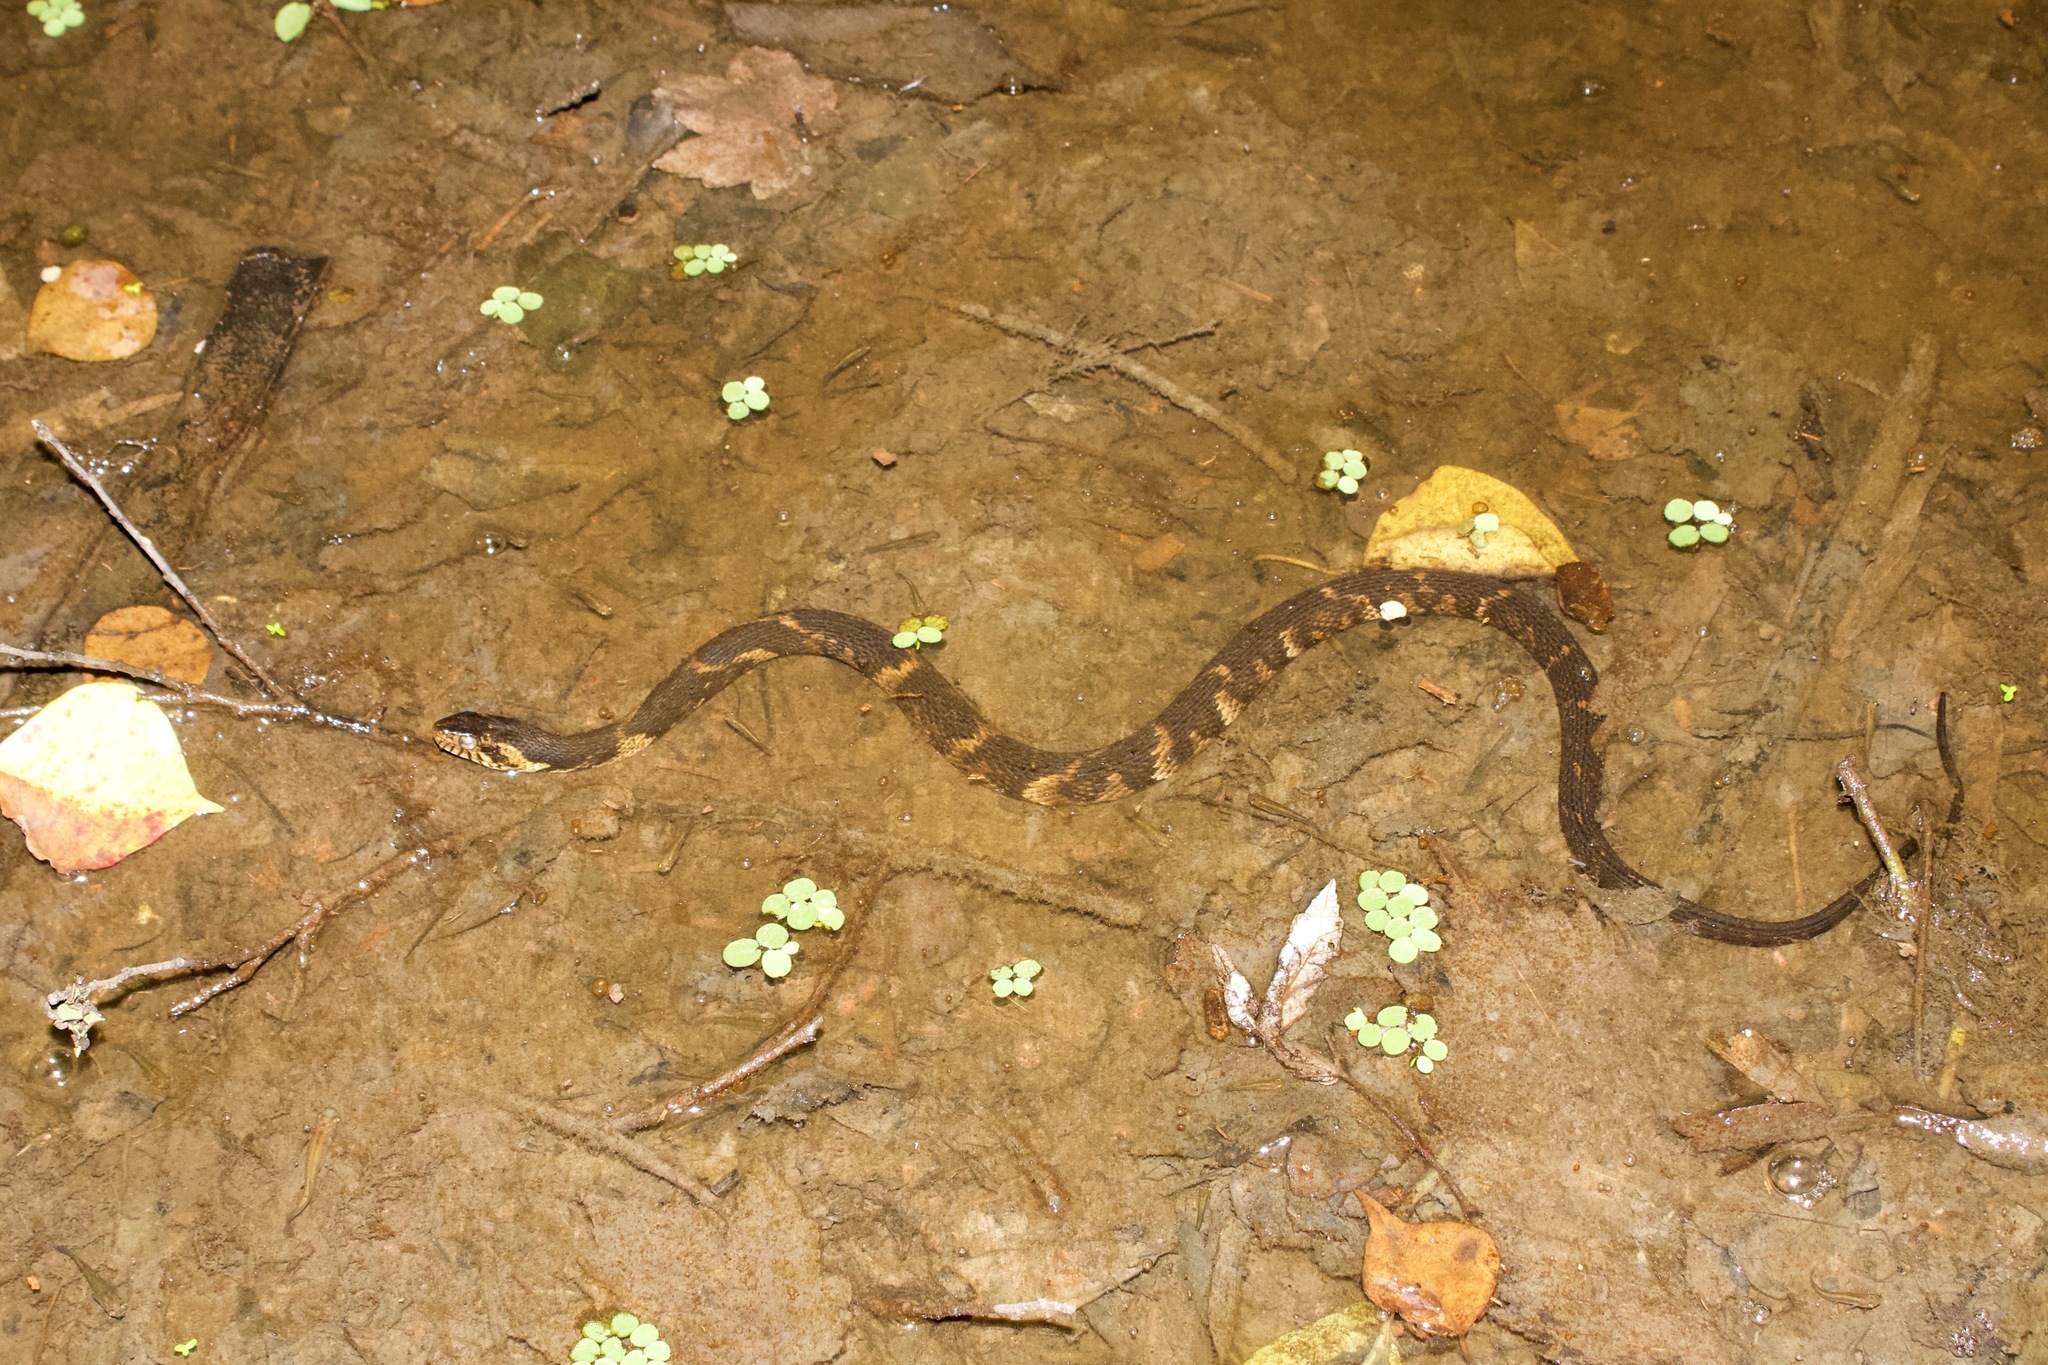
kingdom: Animalia
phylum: Chordata
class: Squamata
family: Colubridae
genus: Nerodia
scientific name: Nerodia fasciata
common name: Southern water snake
